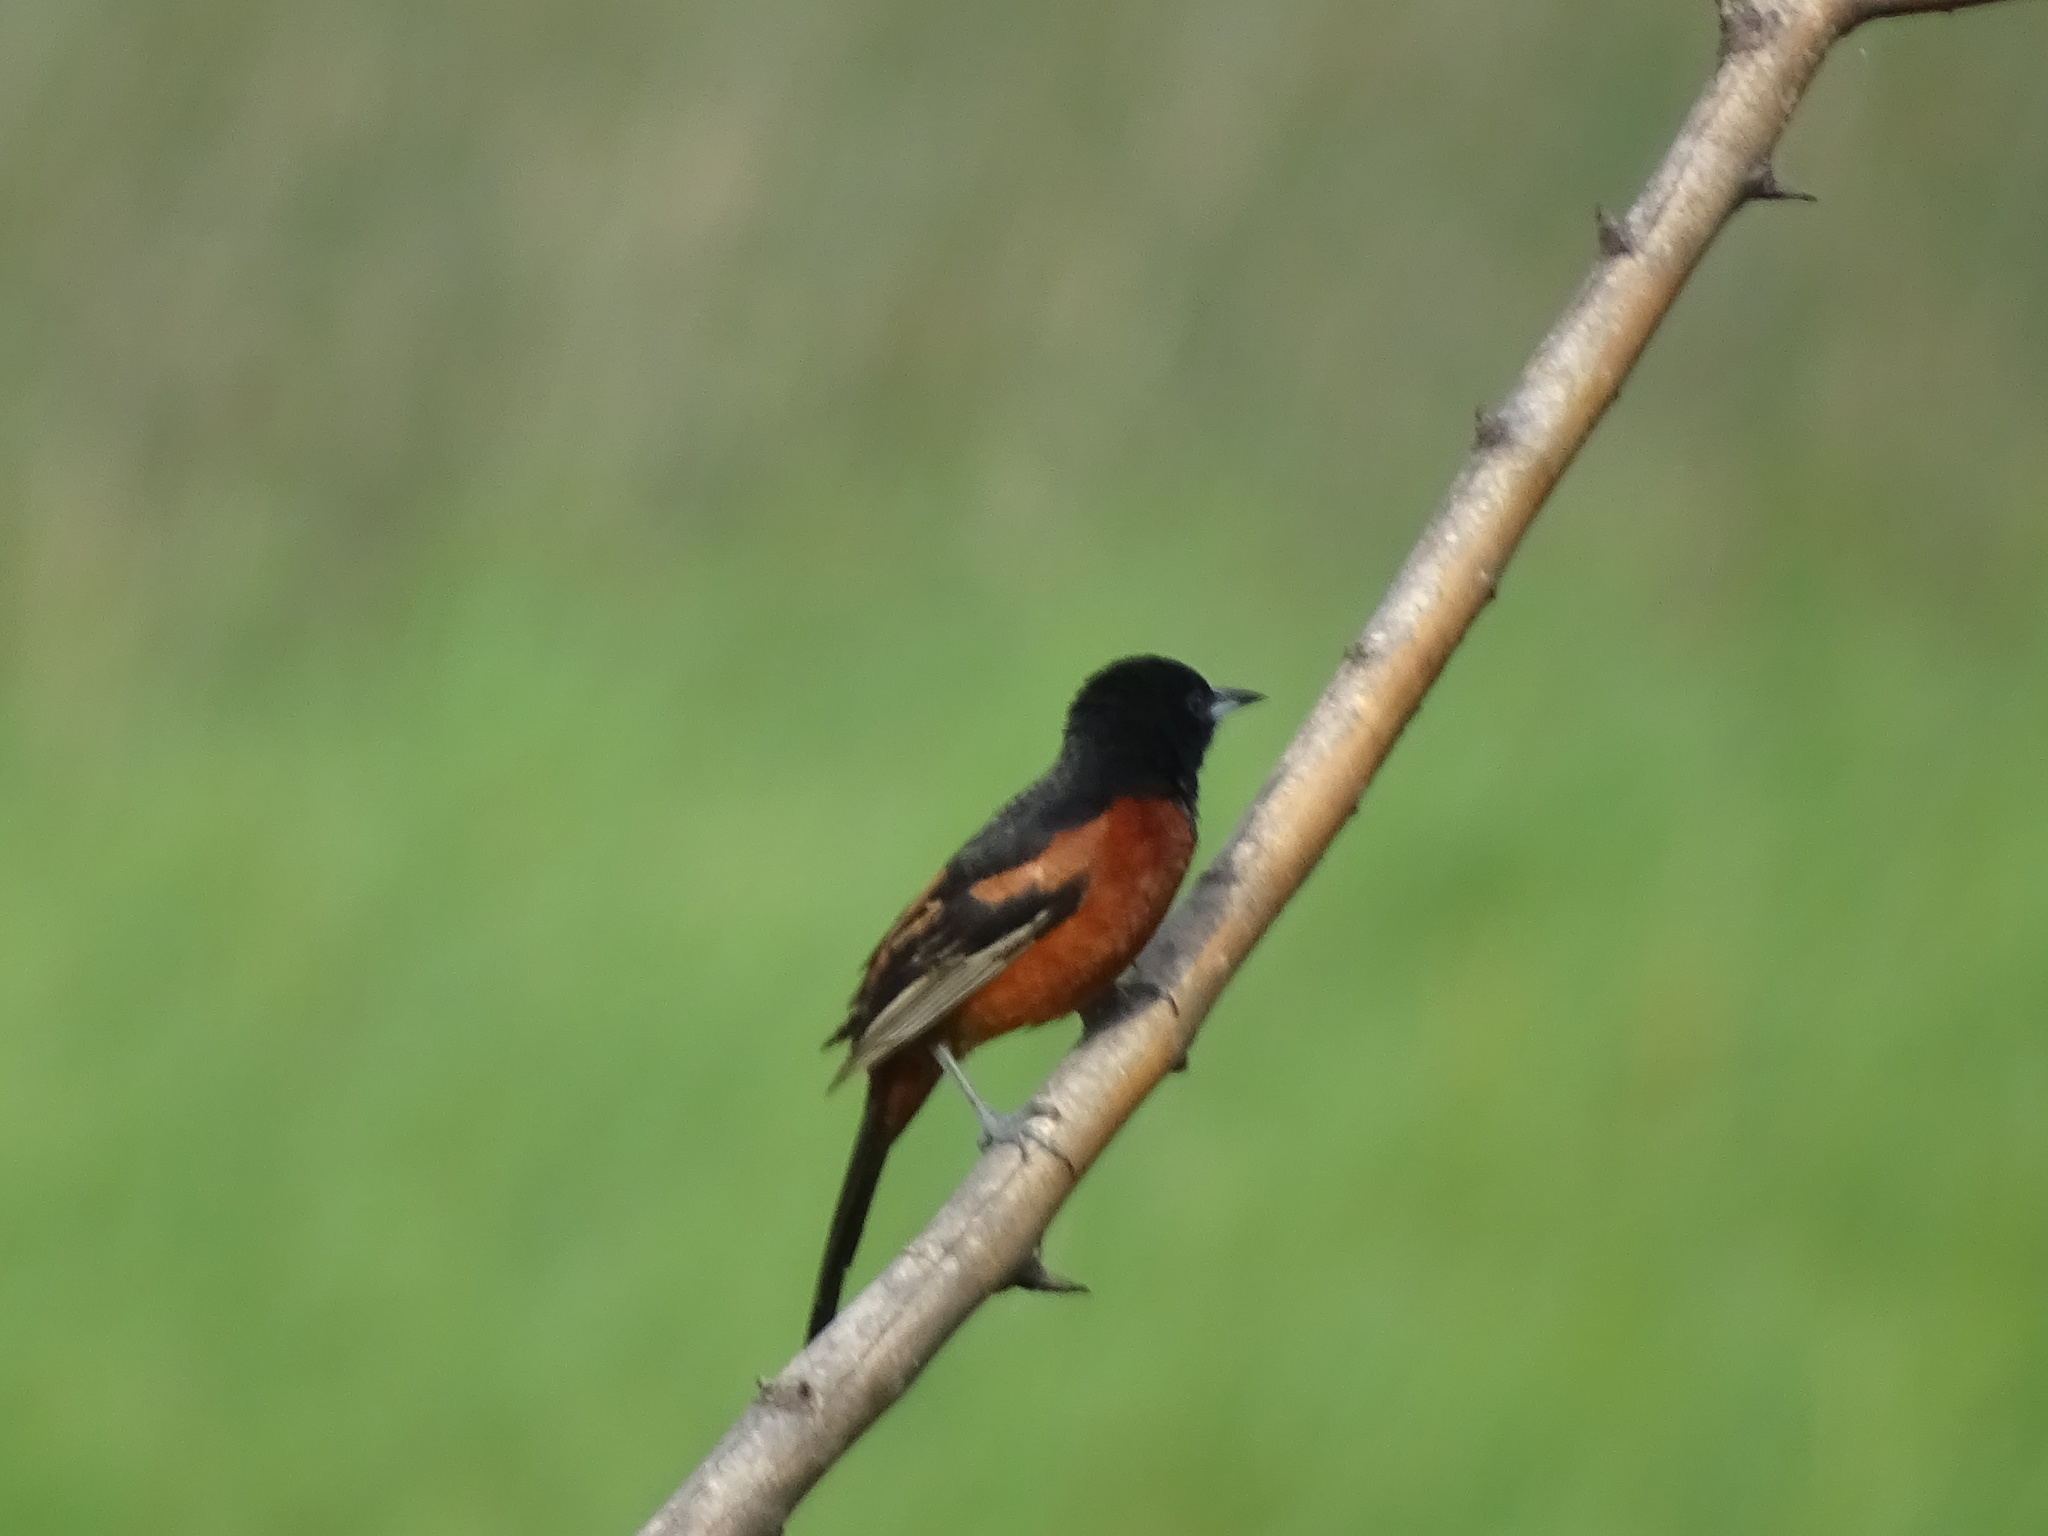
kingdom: Animalia
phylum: Chordata
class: Aves
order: Passeriformes
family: Icteridae
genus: Icterus
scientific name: Icterus spurius
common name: Orchard oriole
